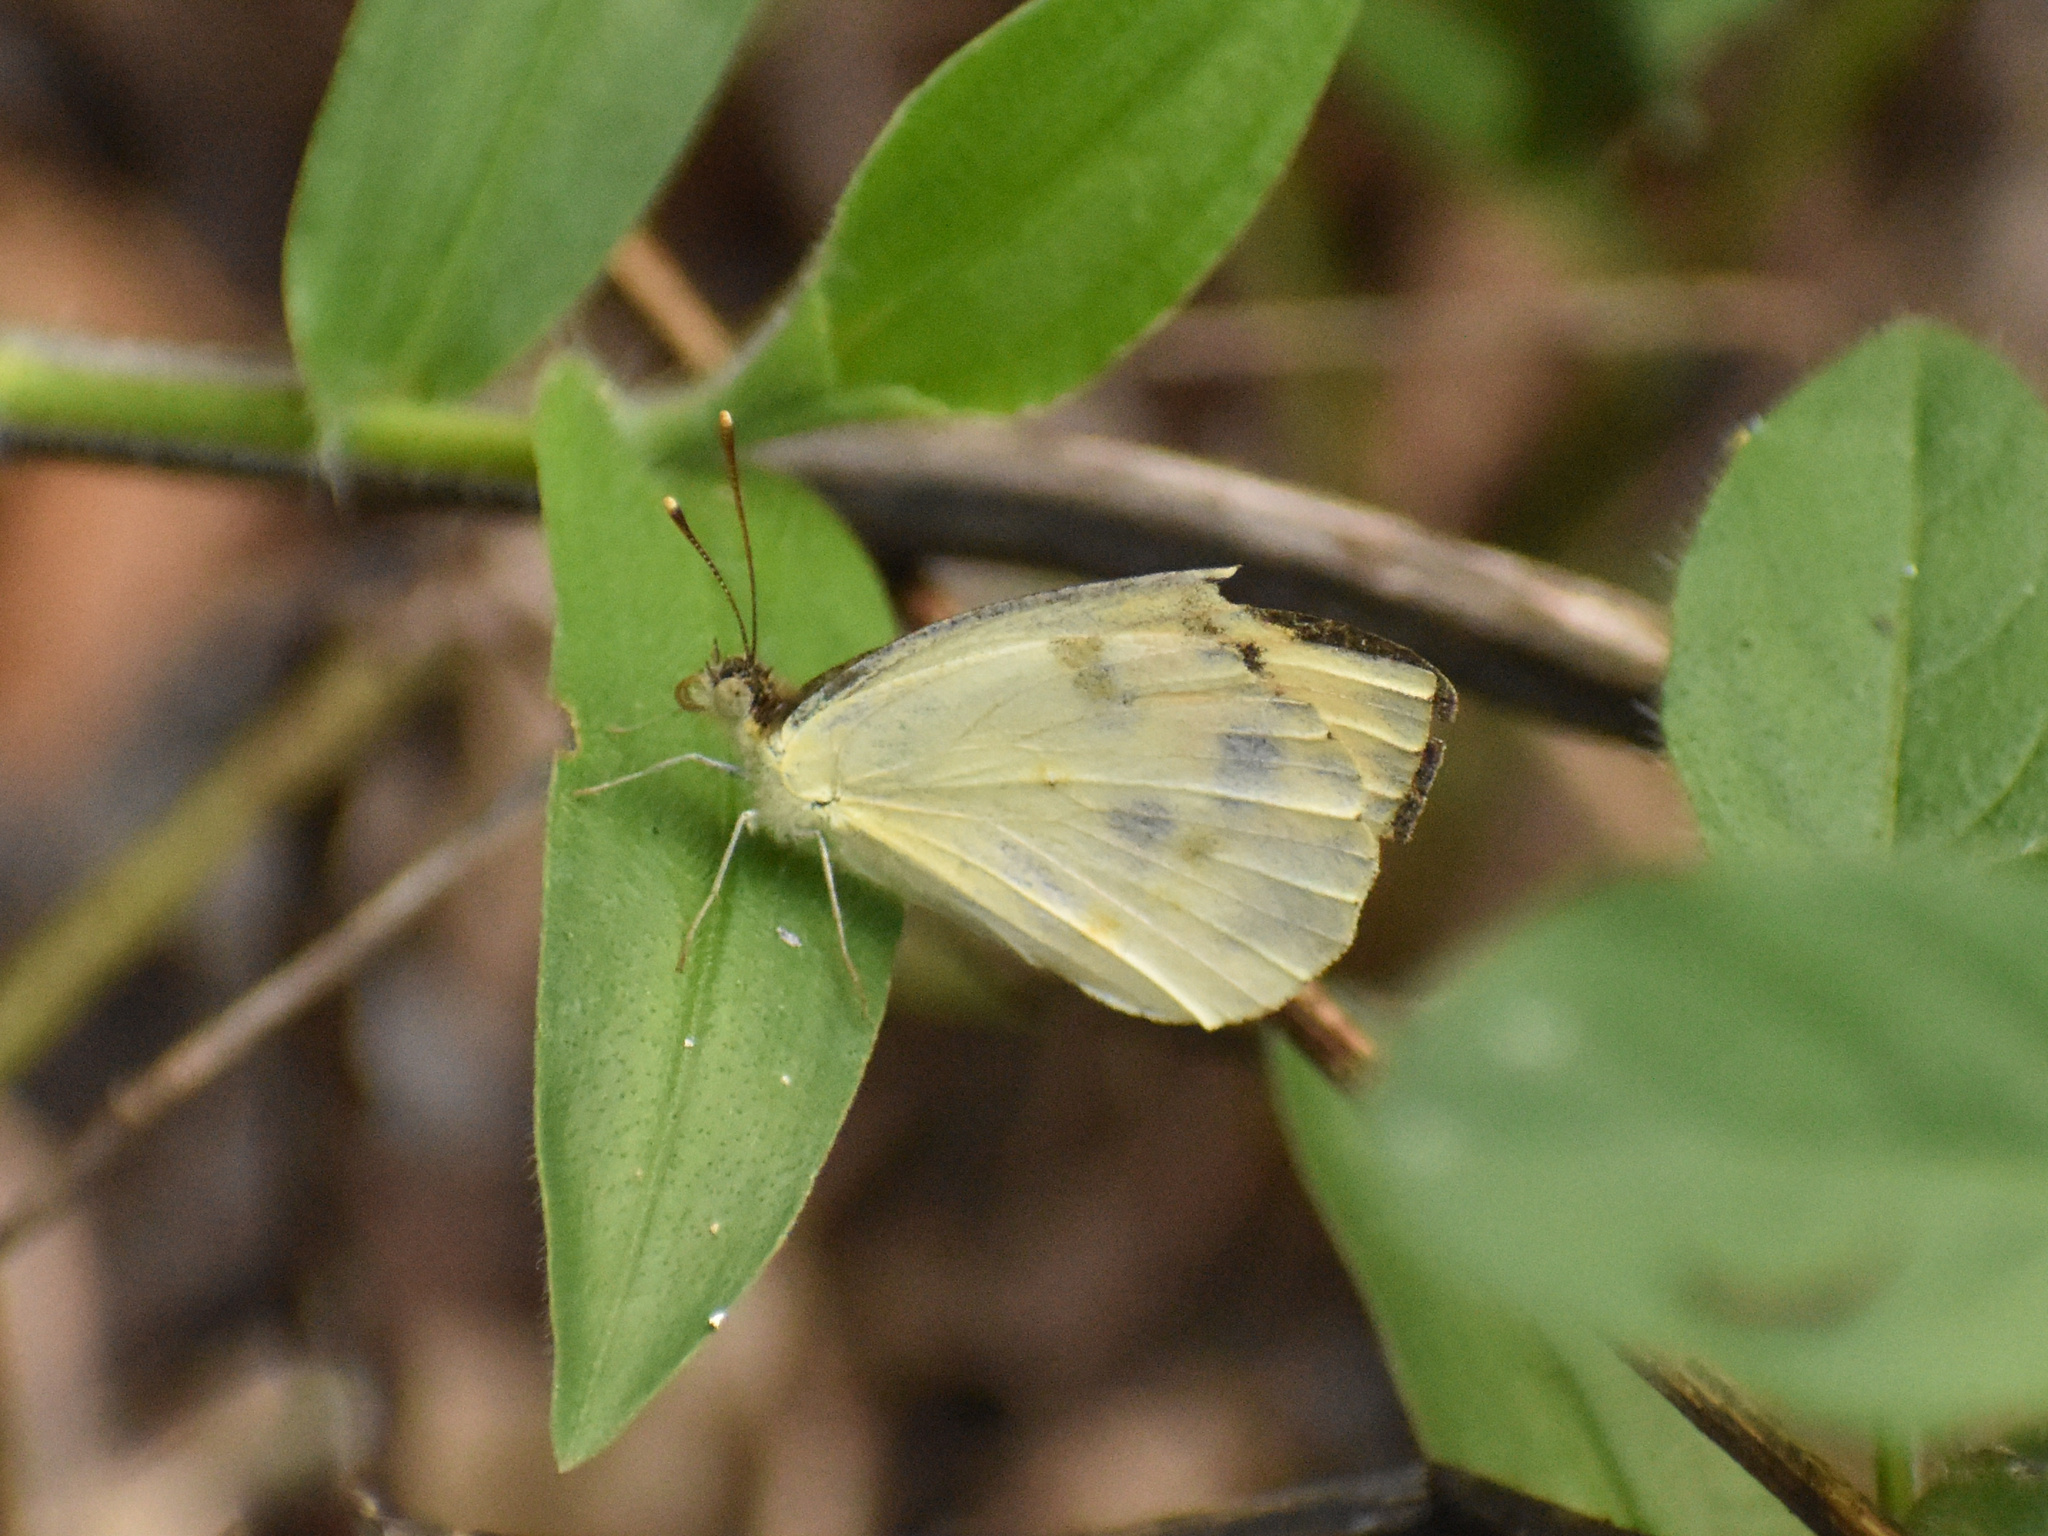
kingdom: Animalia
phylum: Arthropoda
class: Insecta
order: Lepidoptera
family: Pieridae
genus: Colotis
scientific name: Colotis auxo
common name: Sulphur orange tip
